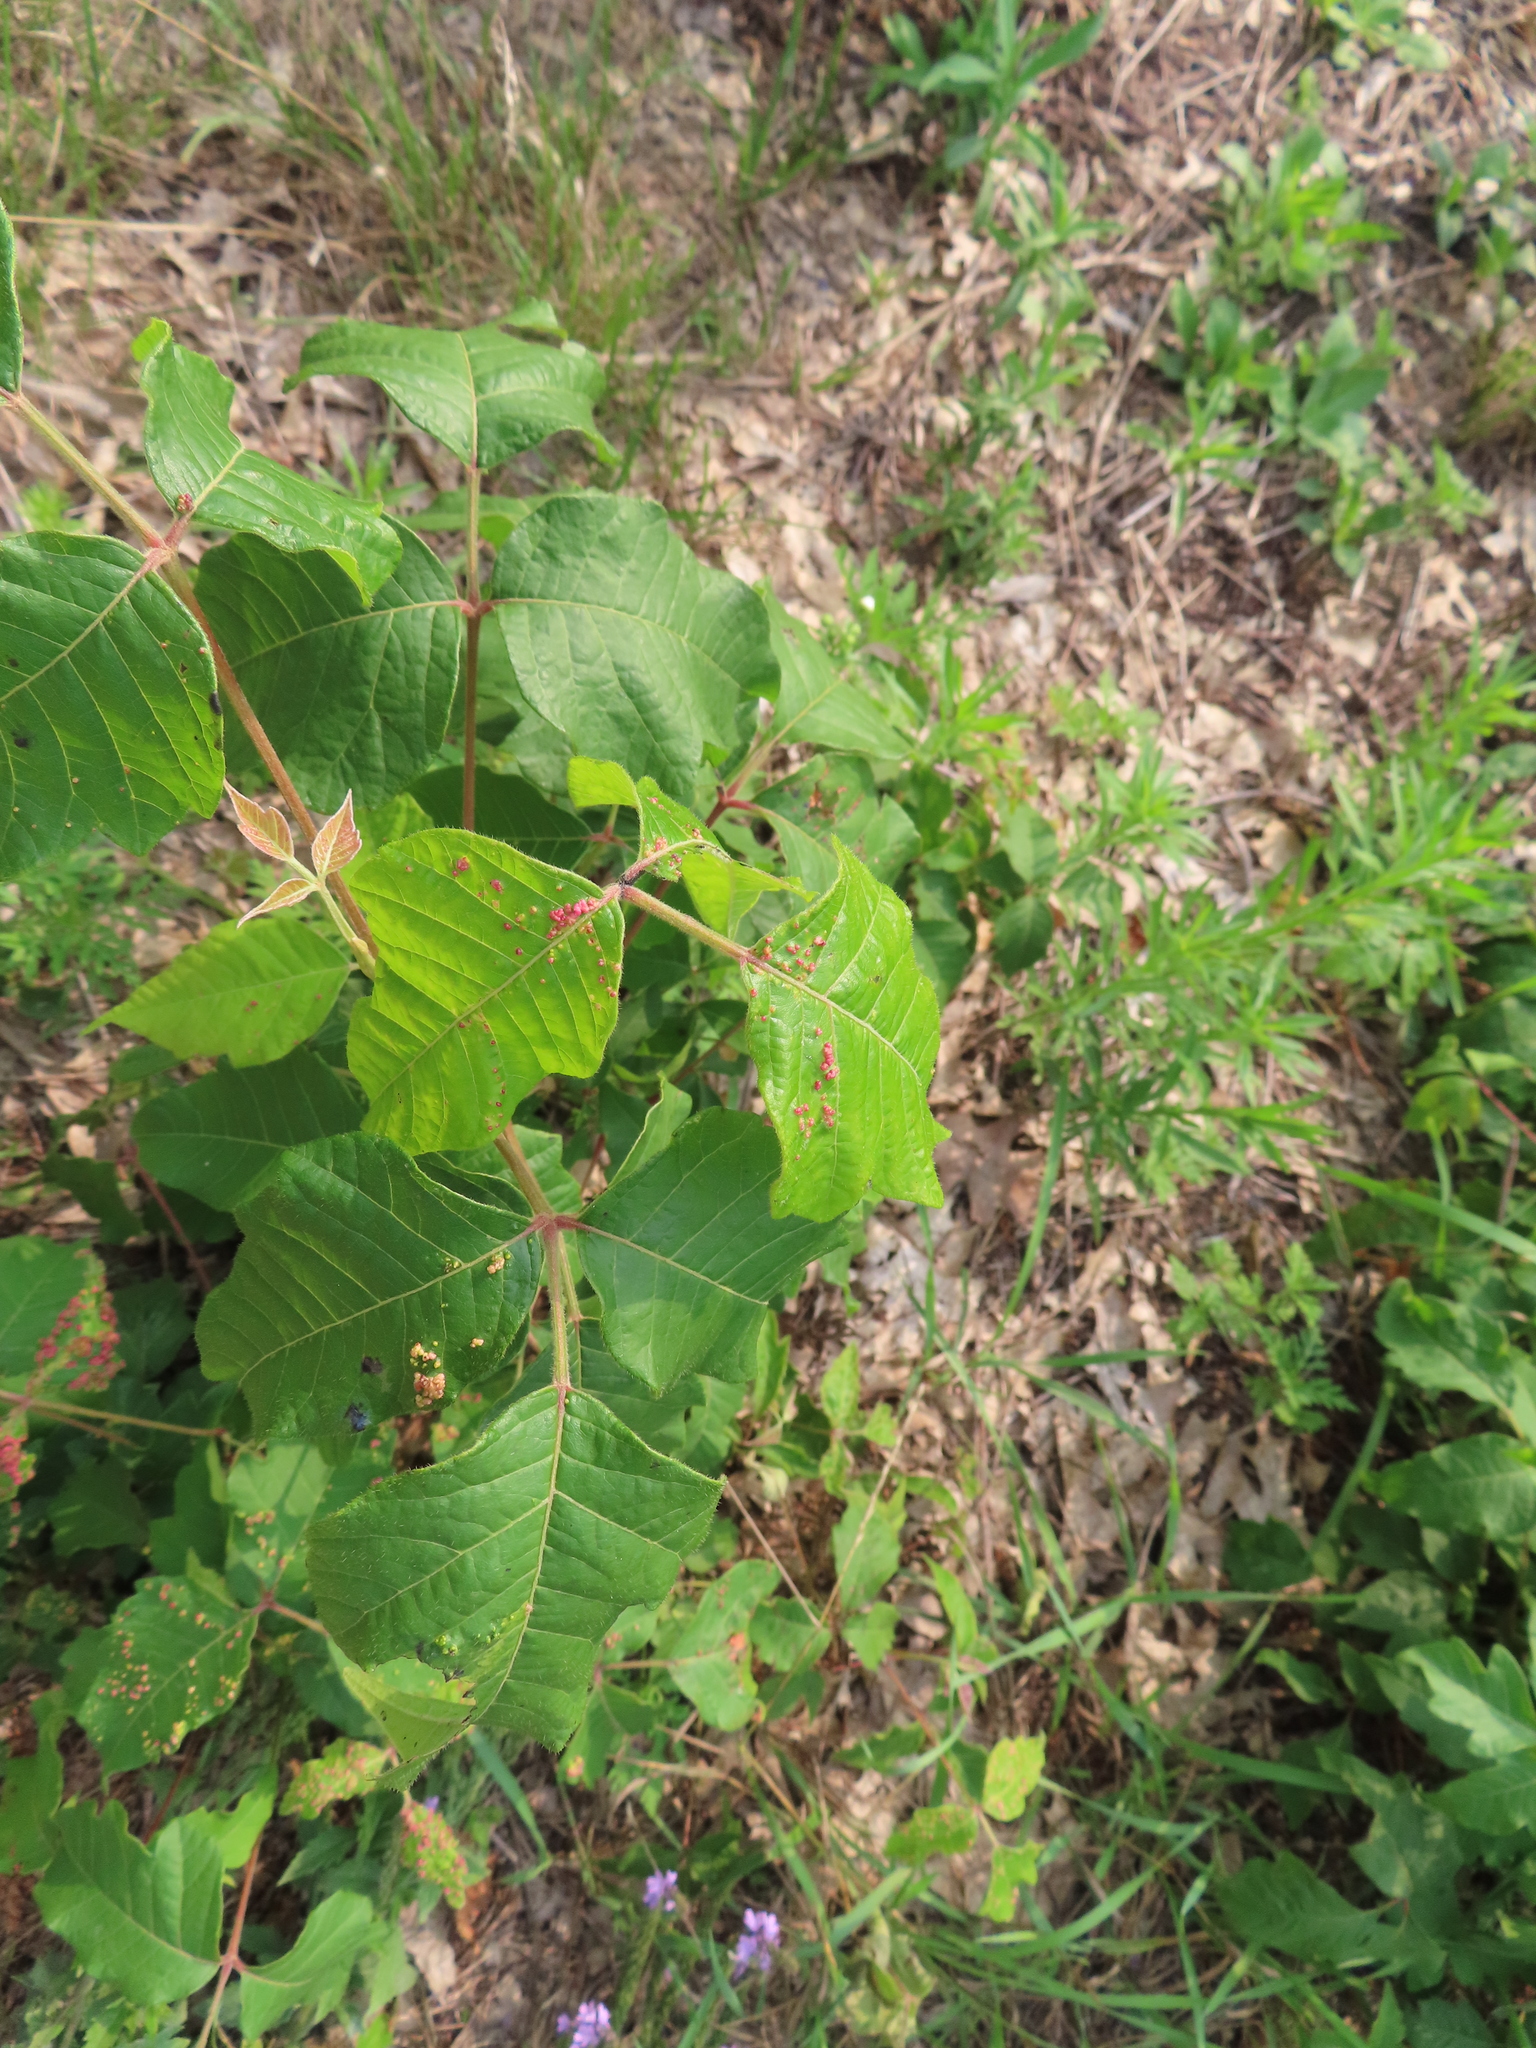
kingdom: Animalia
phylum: Arthropoda
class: Arachnida
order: Trombidiformes
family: Eriophyidae
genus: Aculops
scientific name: Aculops
